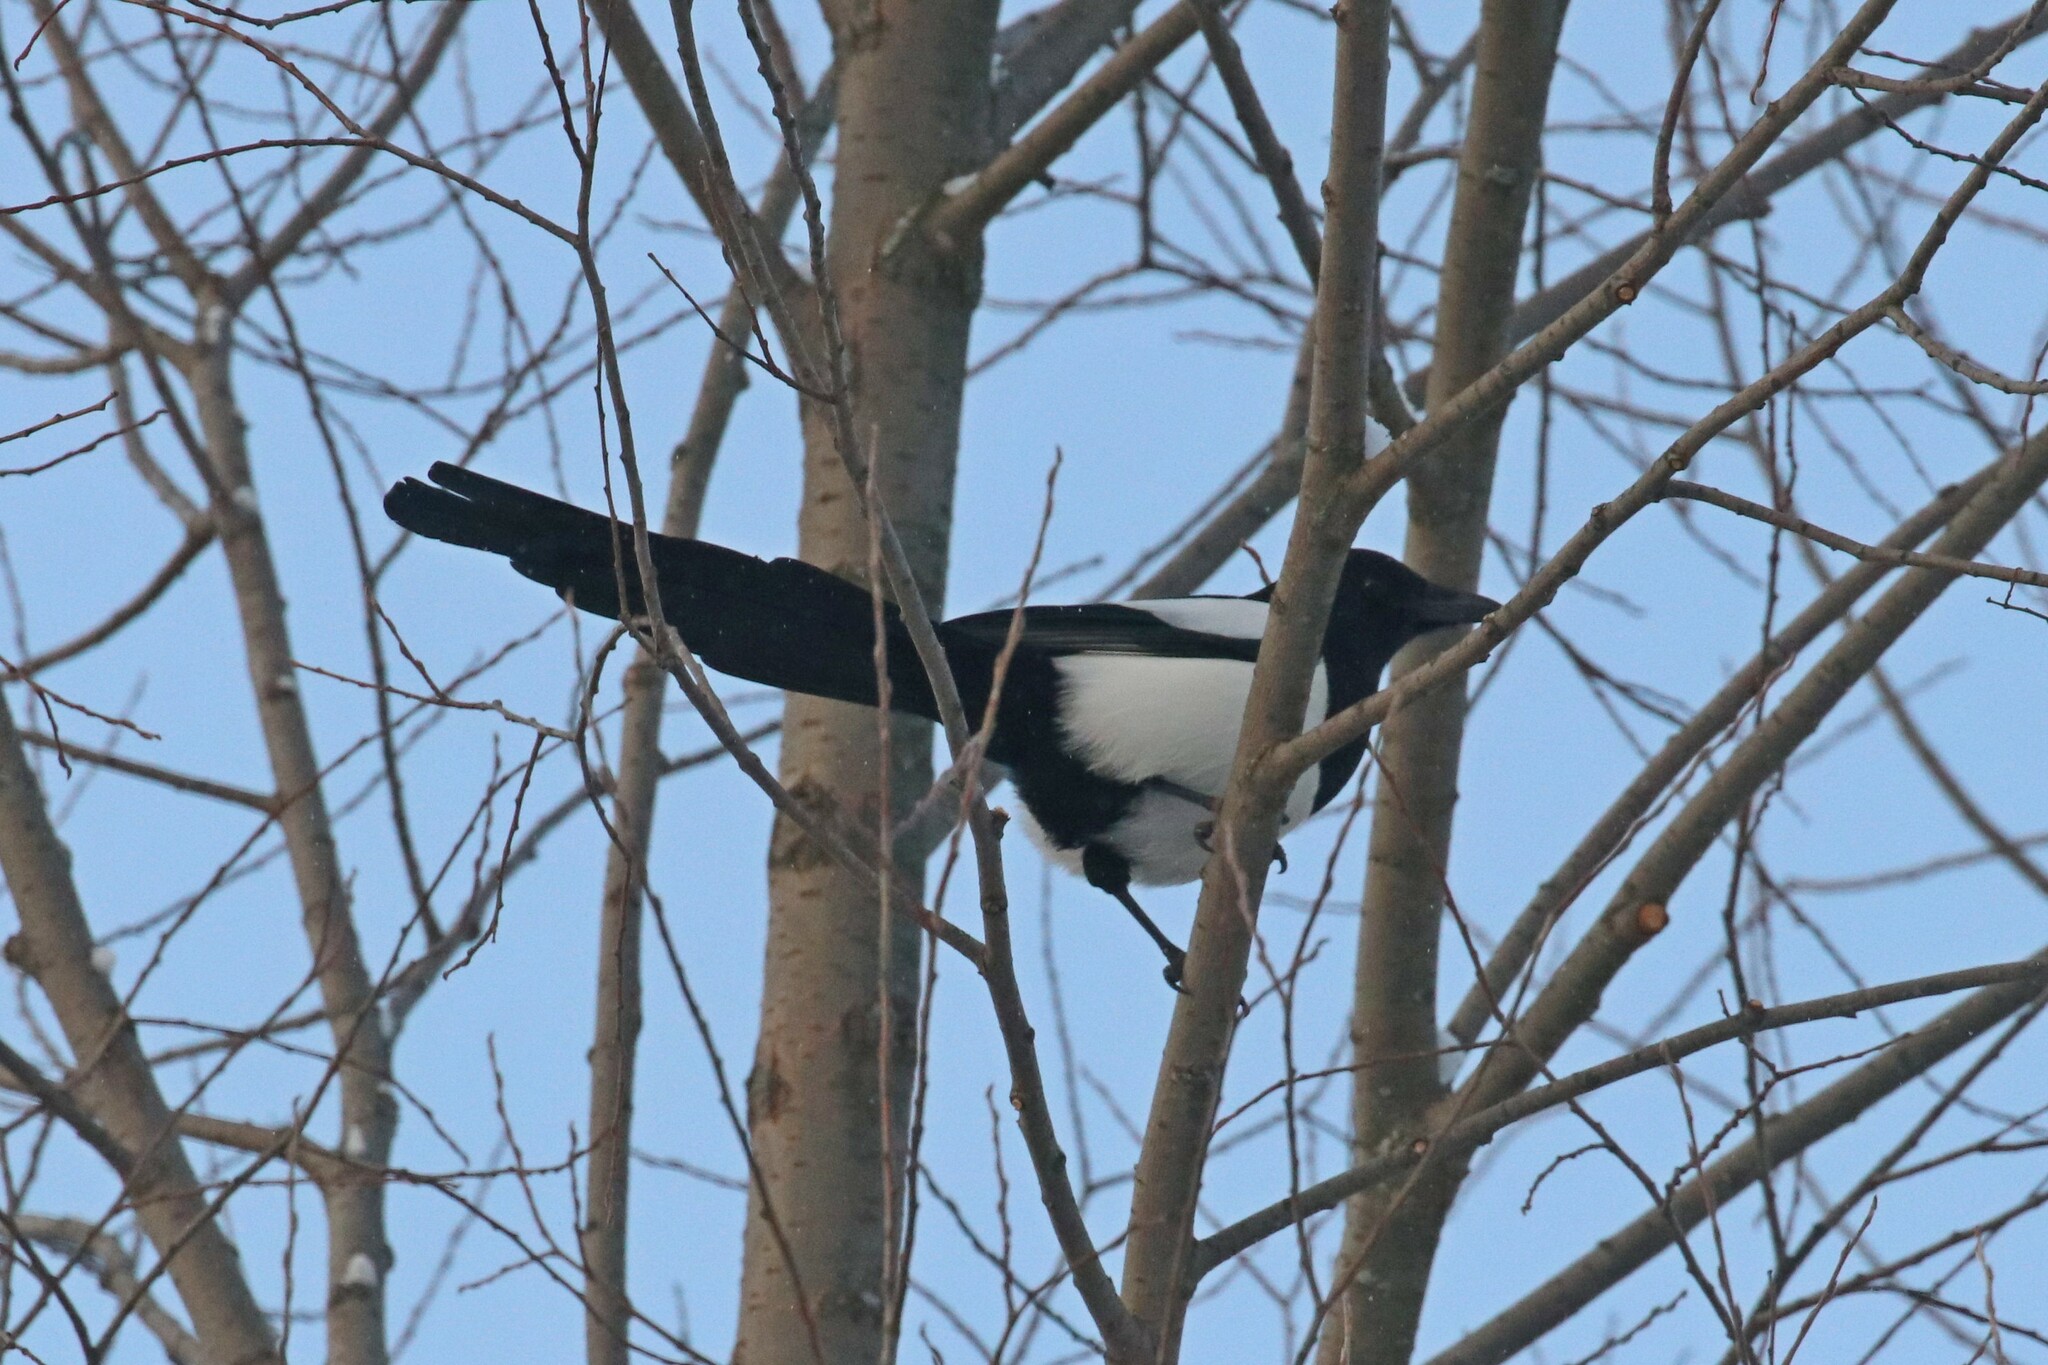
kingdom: Animalia
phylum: Chordata
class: Aves
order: Passeriformes
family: Corvidae
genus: Pica
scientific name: Pica pica
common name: Eurasian magpie
